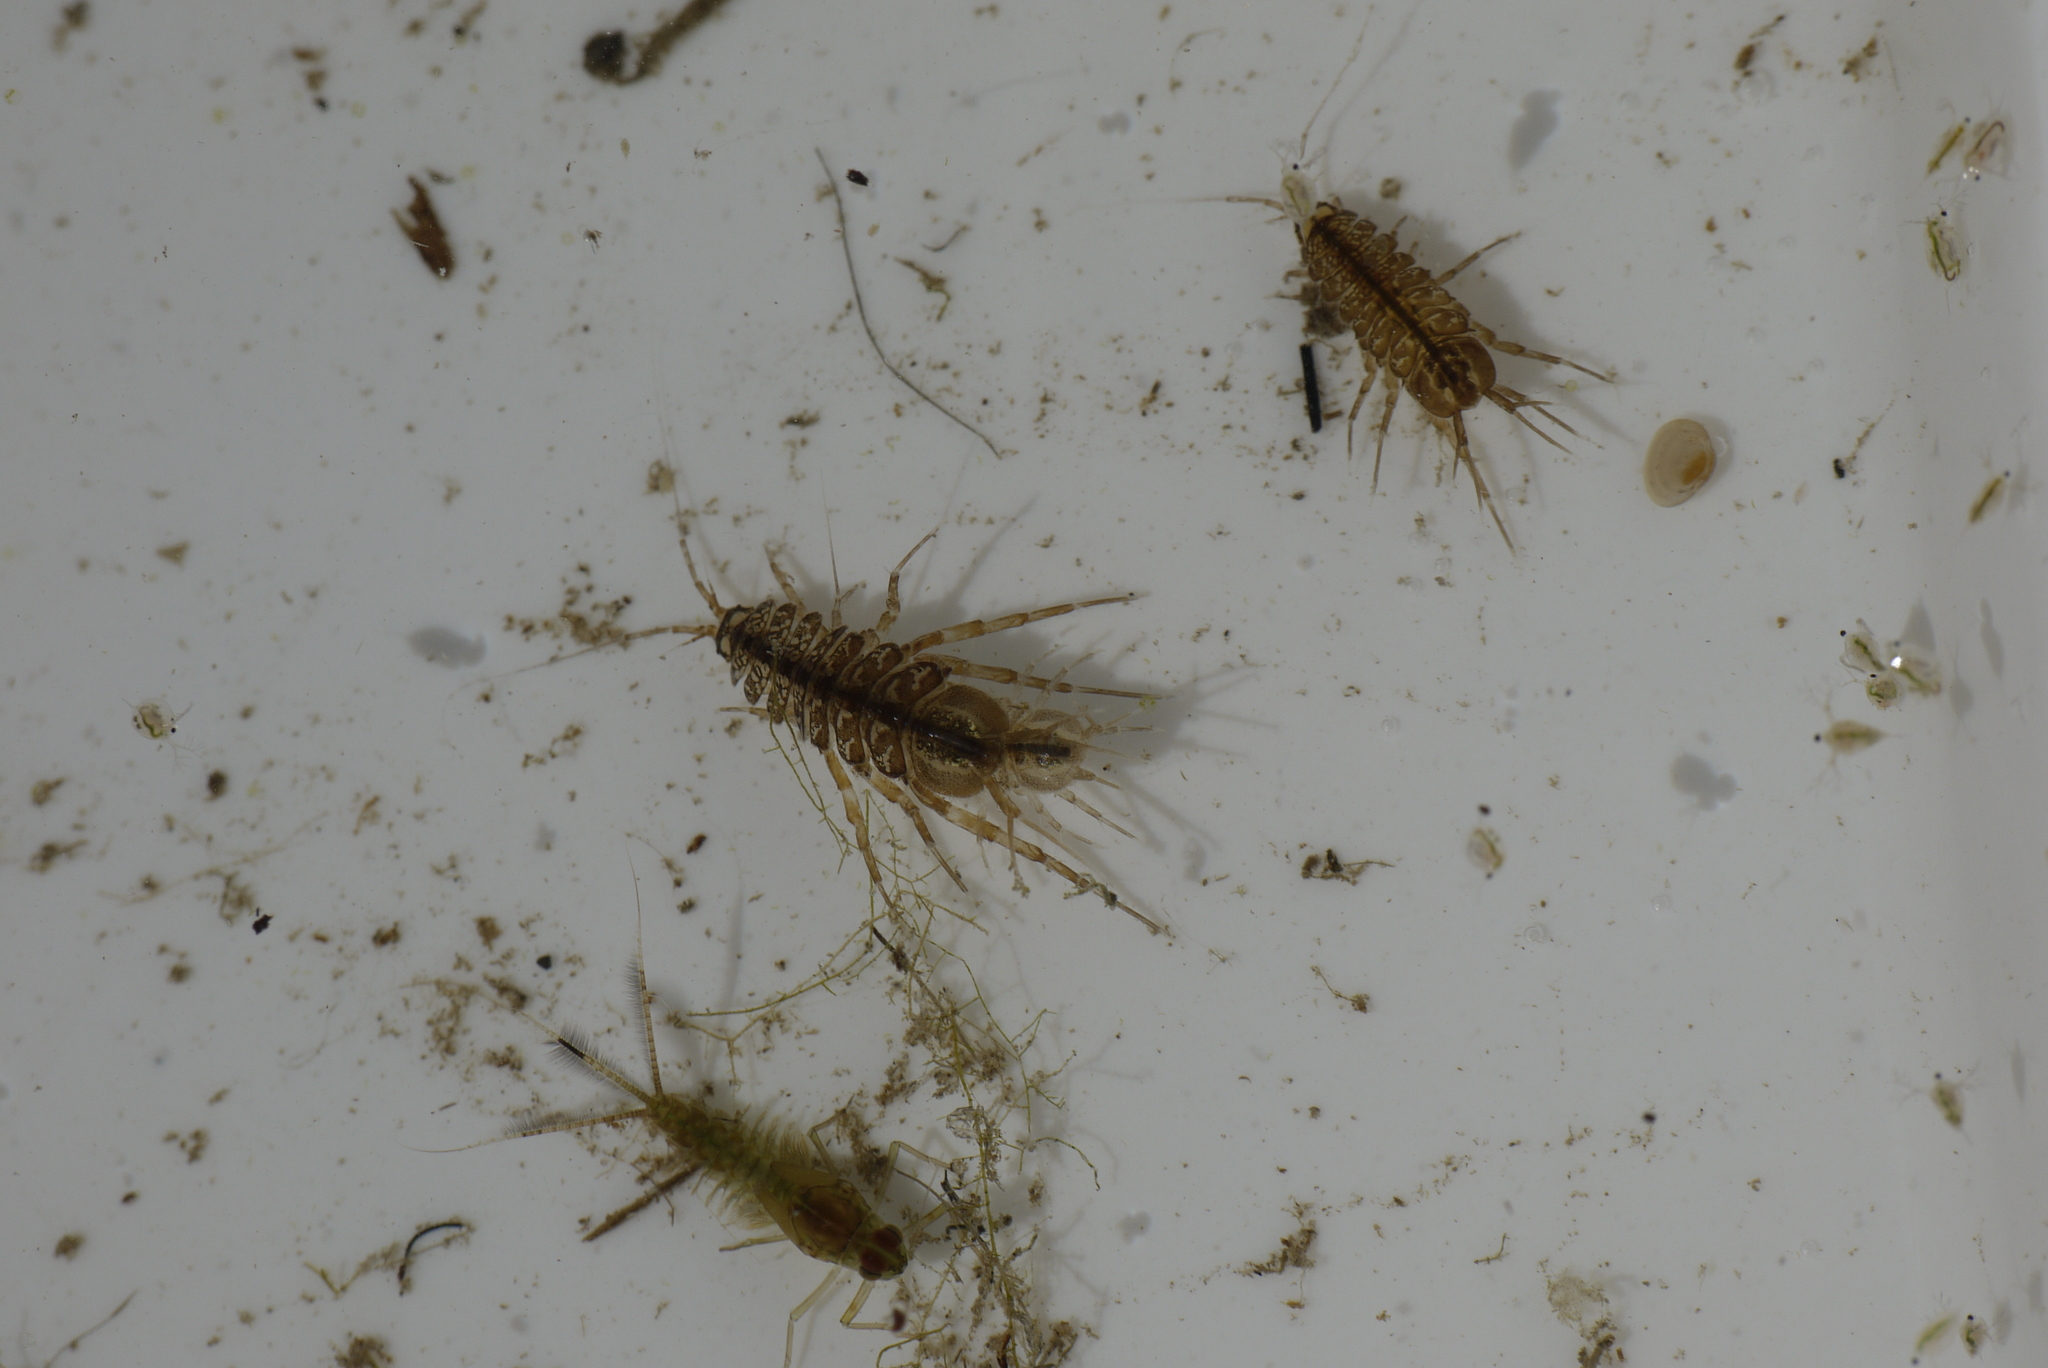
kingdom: Animalia
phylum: Arthropoda
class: Malacostraca
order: Isopoda
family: Asellidae
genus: Asellus
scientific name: Asellus aquaticus
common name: Water hog lice/slaters
